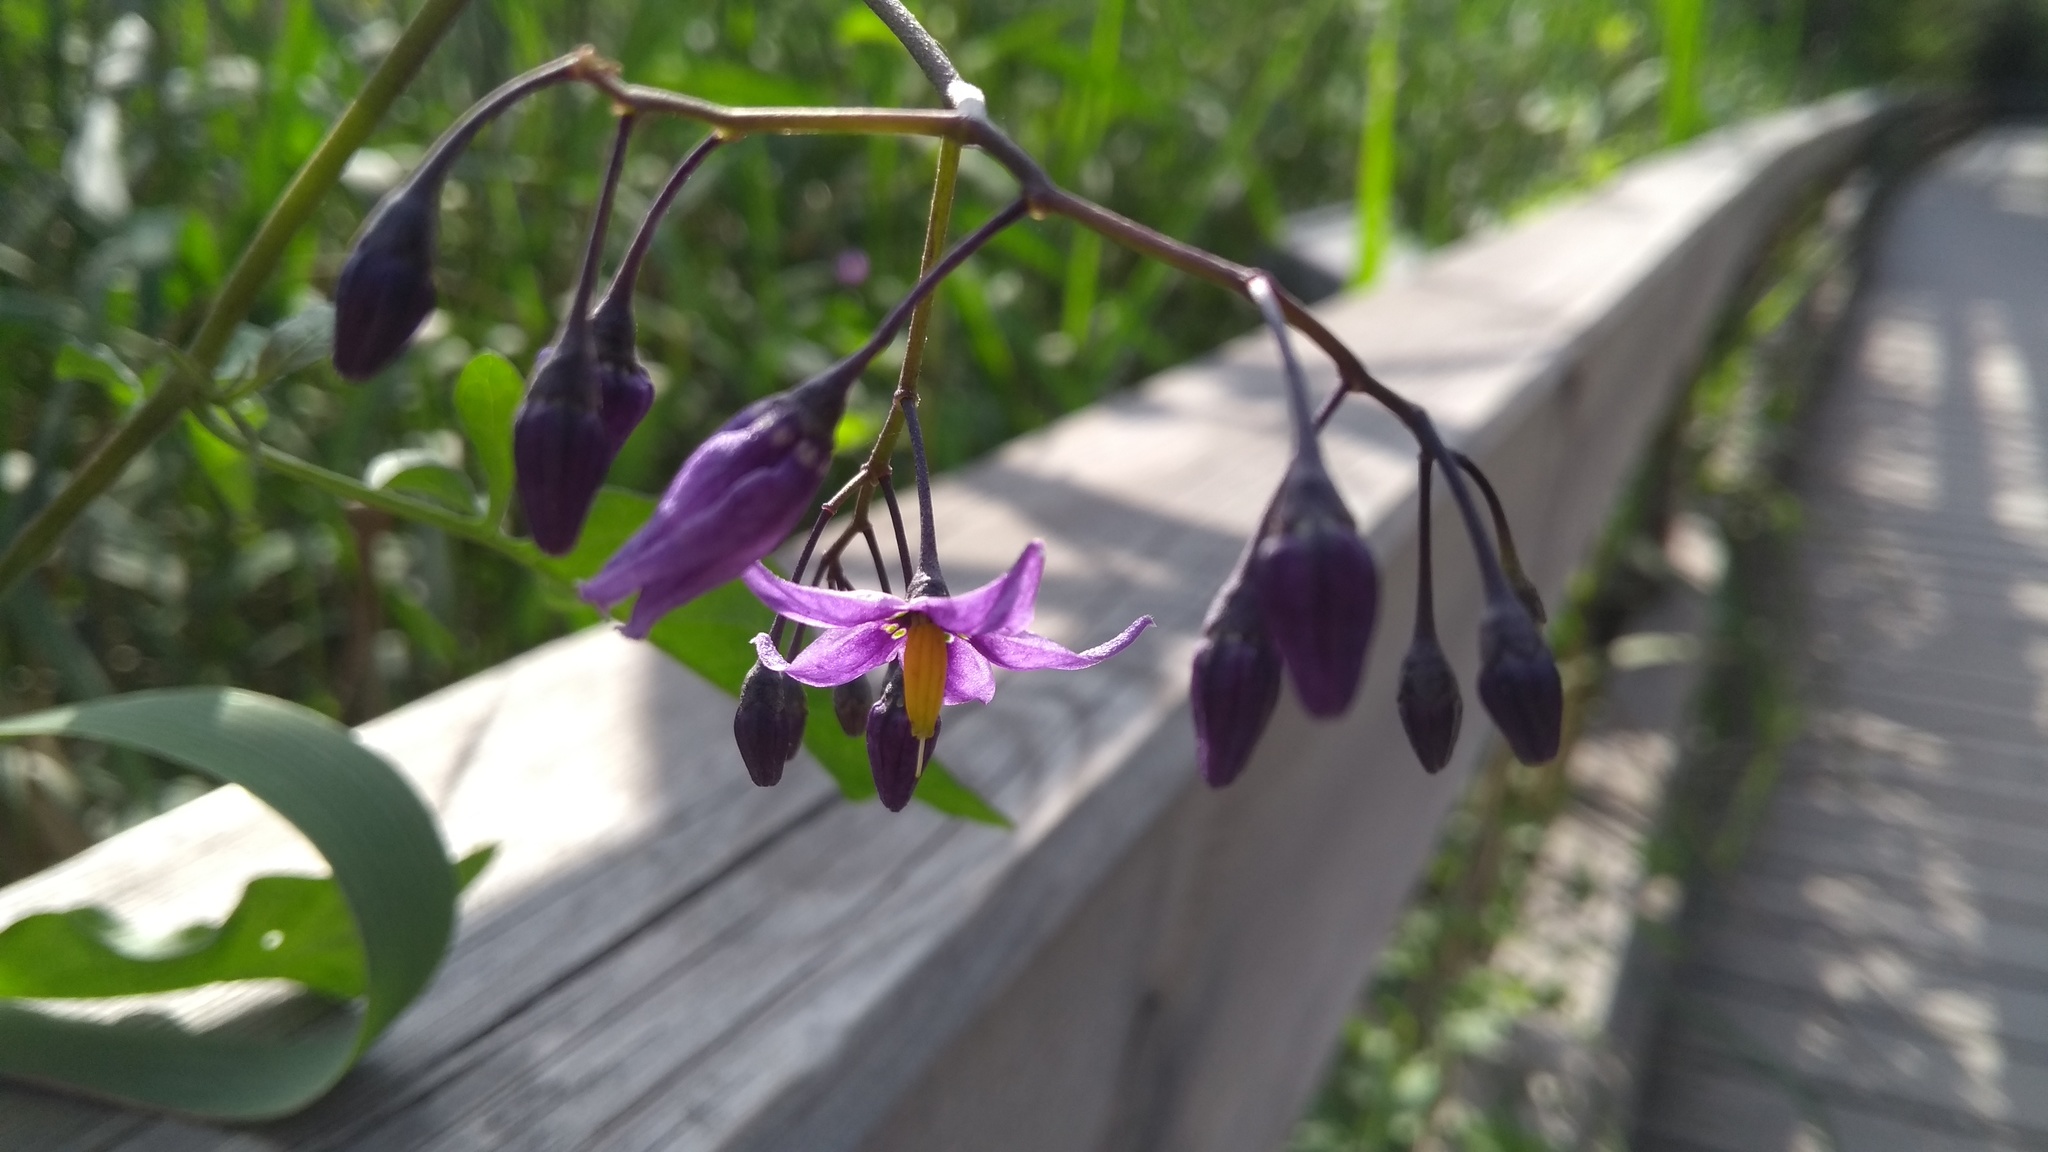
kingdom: Plantae
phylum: Tracheophyta
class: Magnoliopsida
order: Solanales
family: Solanaceae
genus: Solanum
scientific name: Solanum dulcamara
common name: Climbing nightshade
